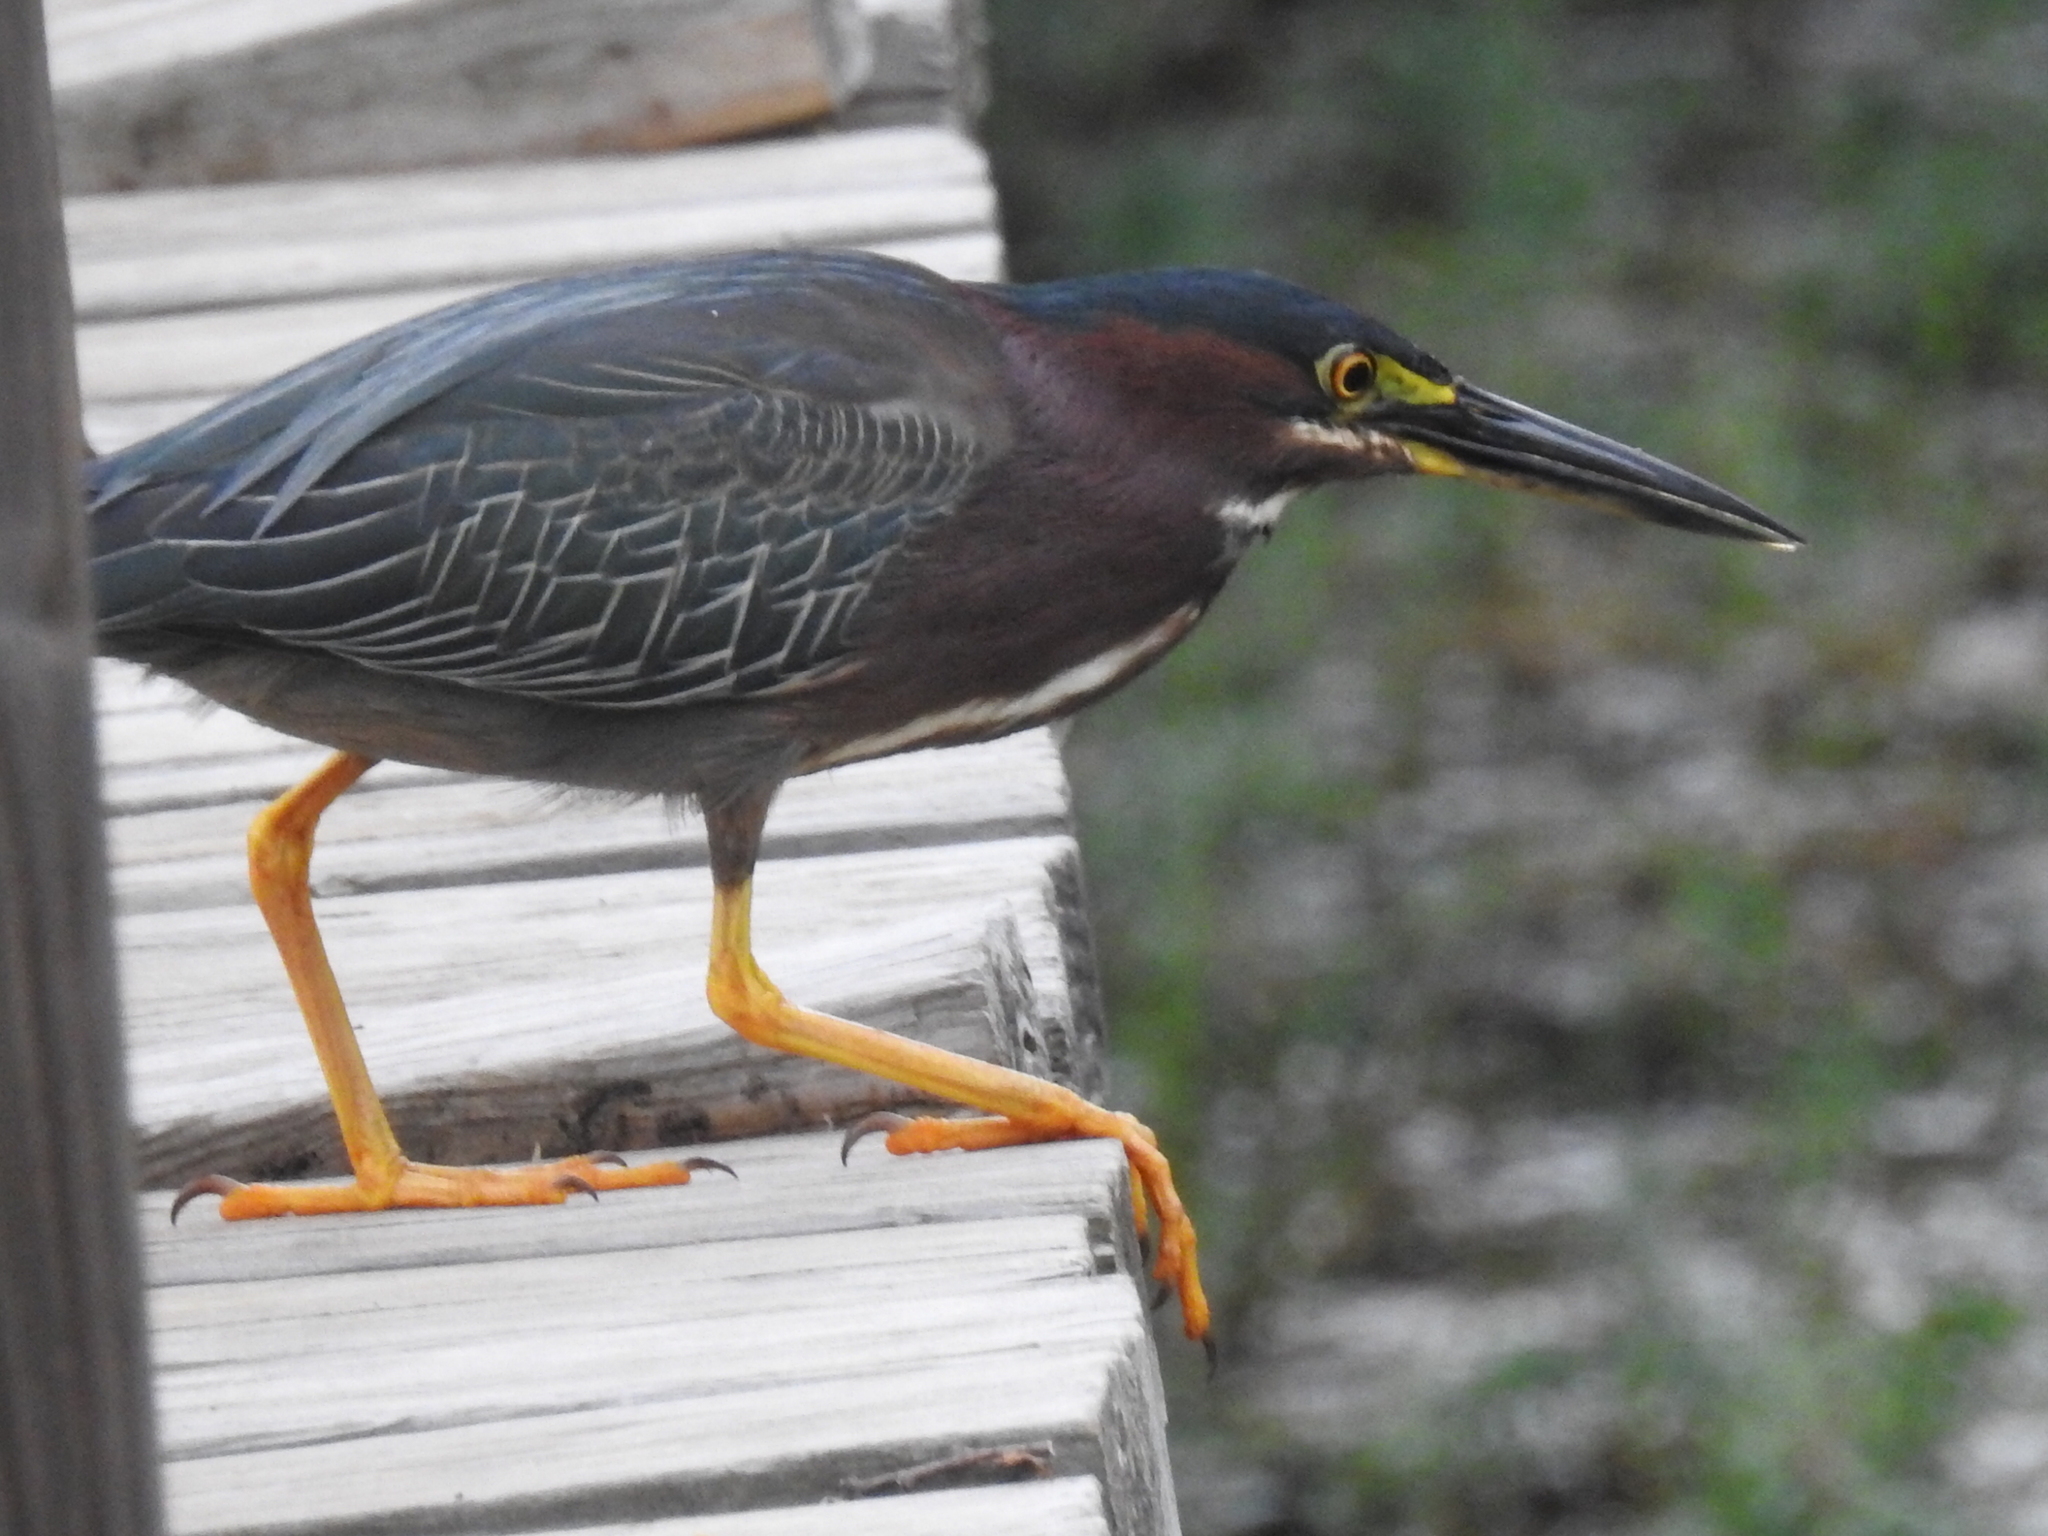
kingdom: Animalia
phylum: Chordata
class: Aves
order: Pelecaniformes
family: Ardeidae
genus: Butorides
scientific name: Butorides virescens
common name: Green heron
